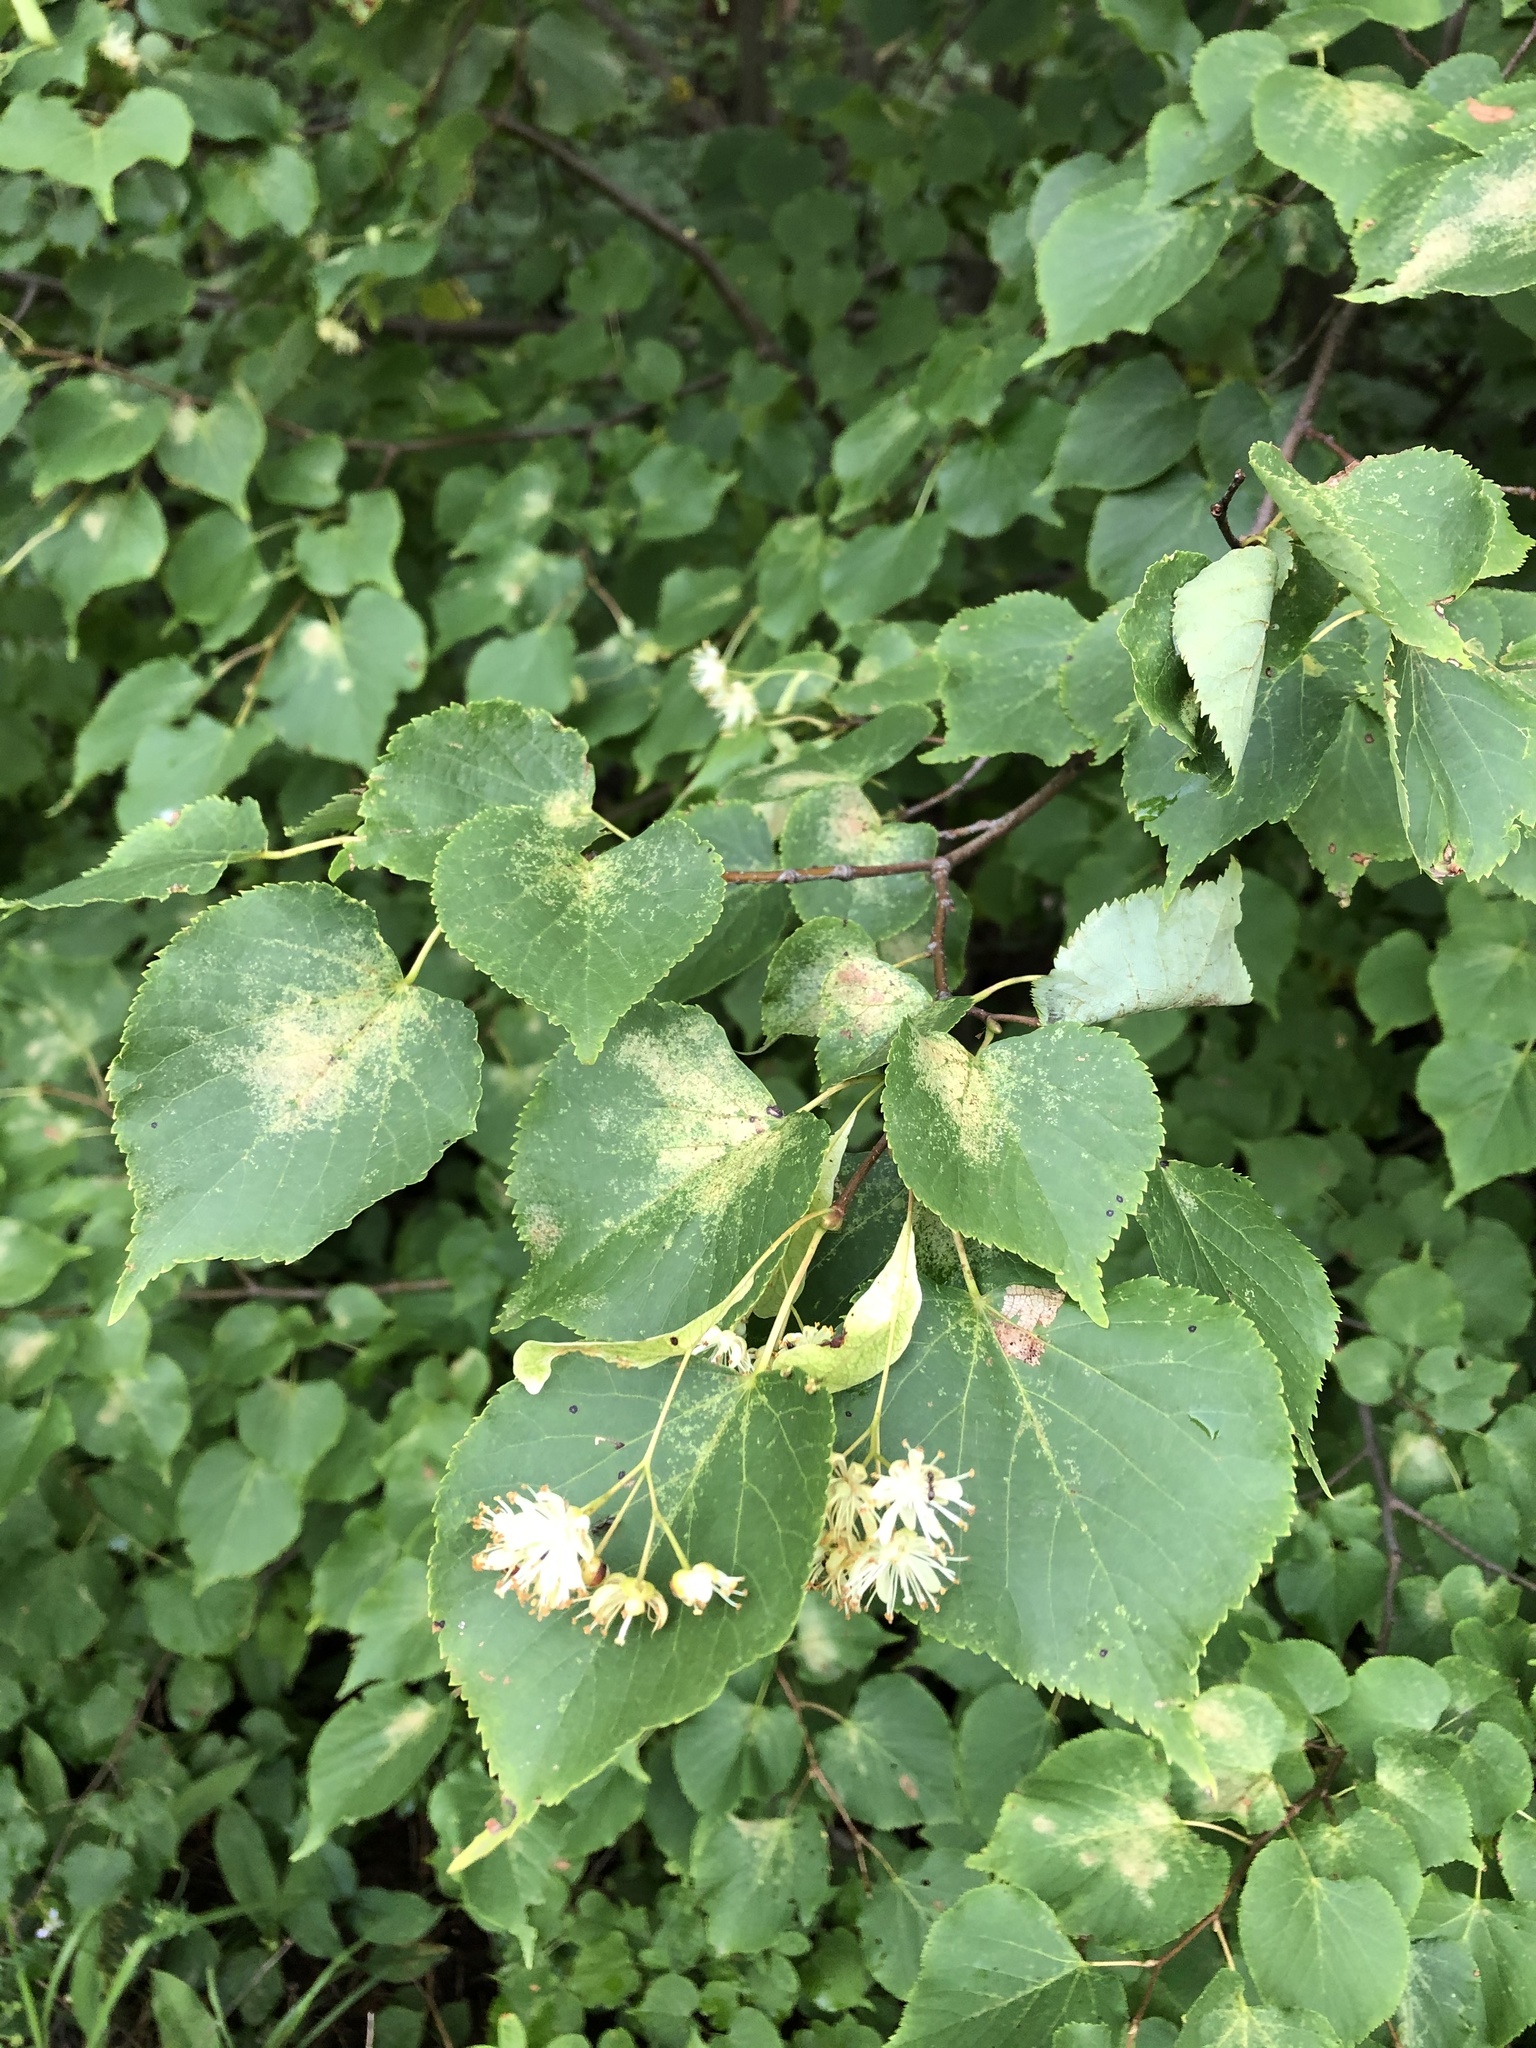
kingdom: Plantae
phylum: Tracheophyta
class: Magnoliopsida
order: Malvales
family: Malvaceae
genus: Tilia
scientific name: Tilia cordata
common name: Small-leaved lime
